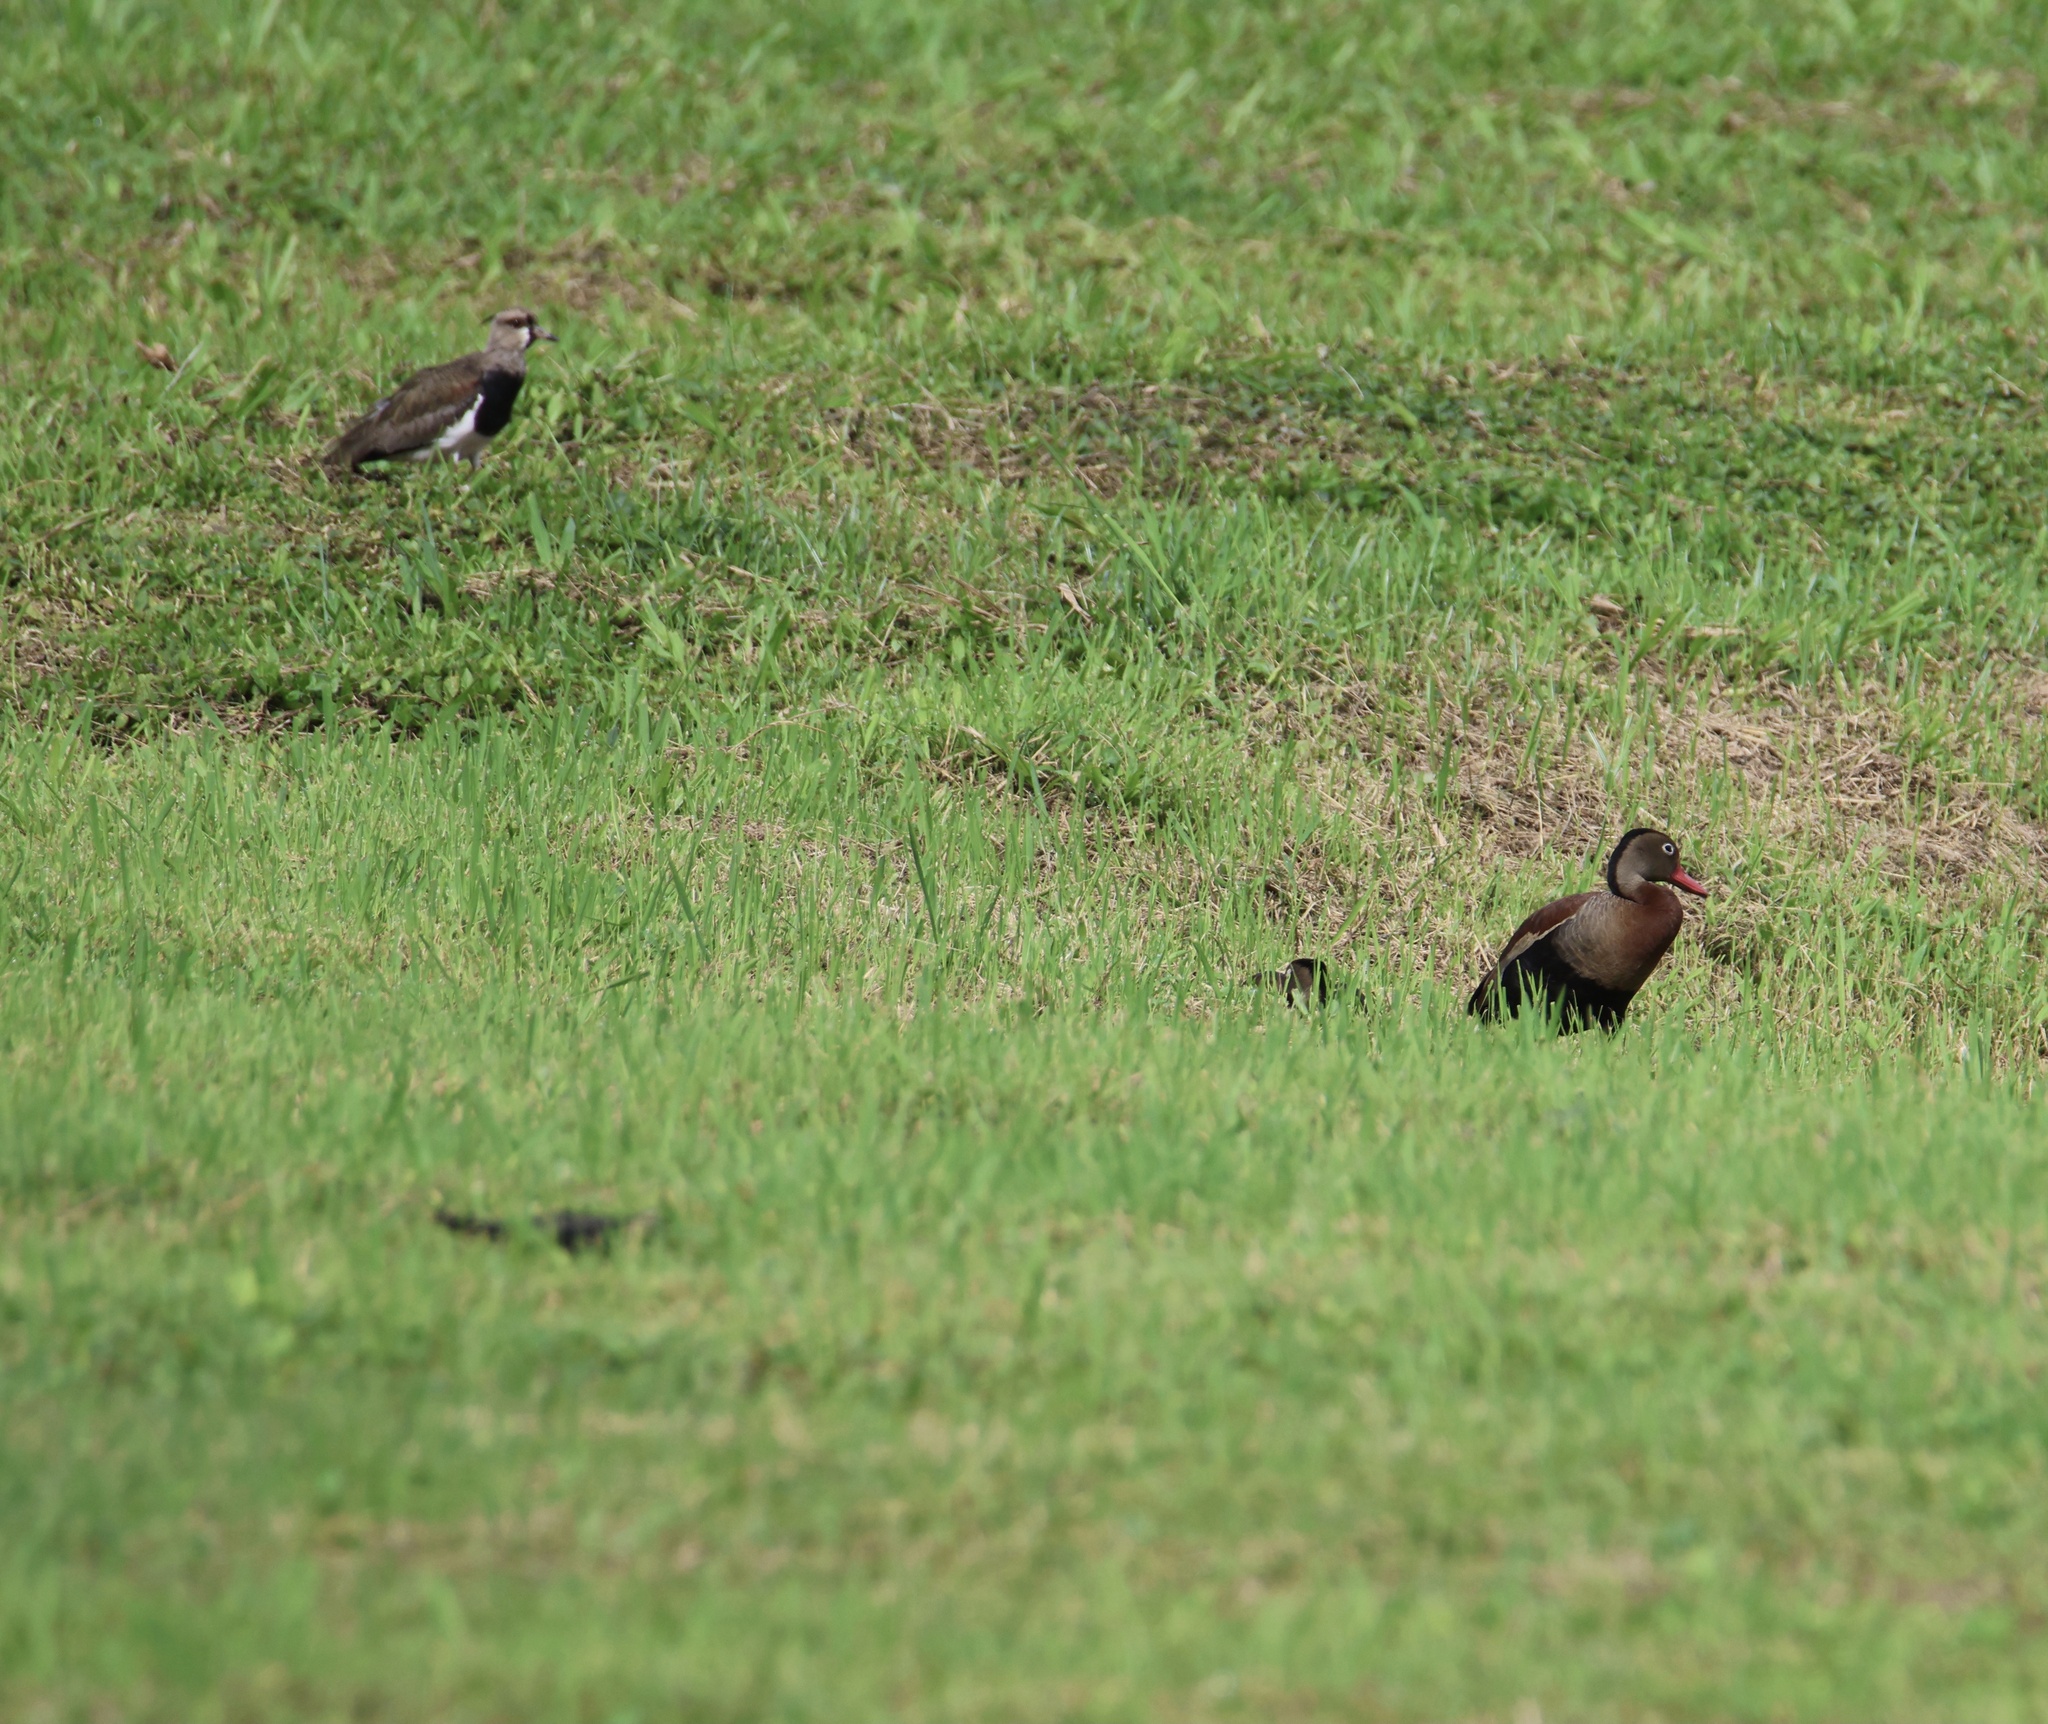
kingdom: Animalia
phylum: Chordata
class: Aves
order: Anseriformes
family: Anatidae
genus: Dendrocygna
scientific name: Dendrocygna autumnalis
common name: Black-bellied whistling duck
